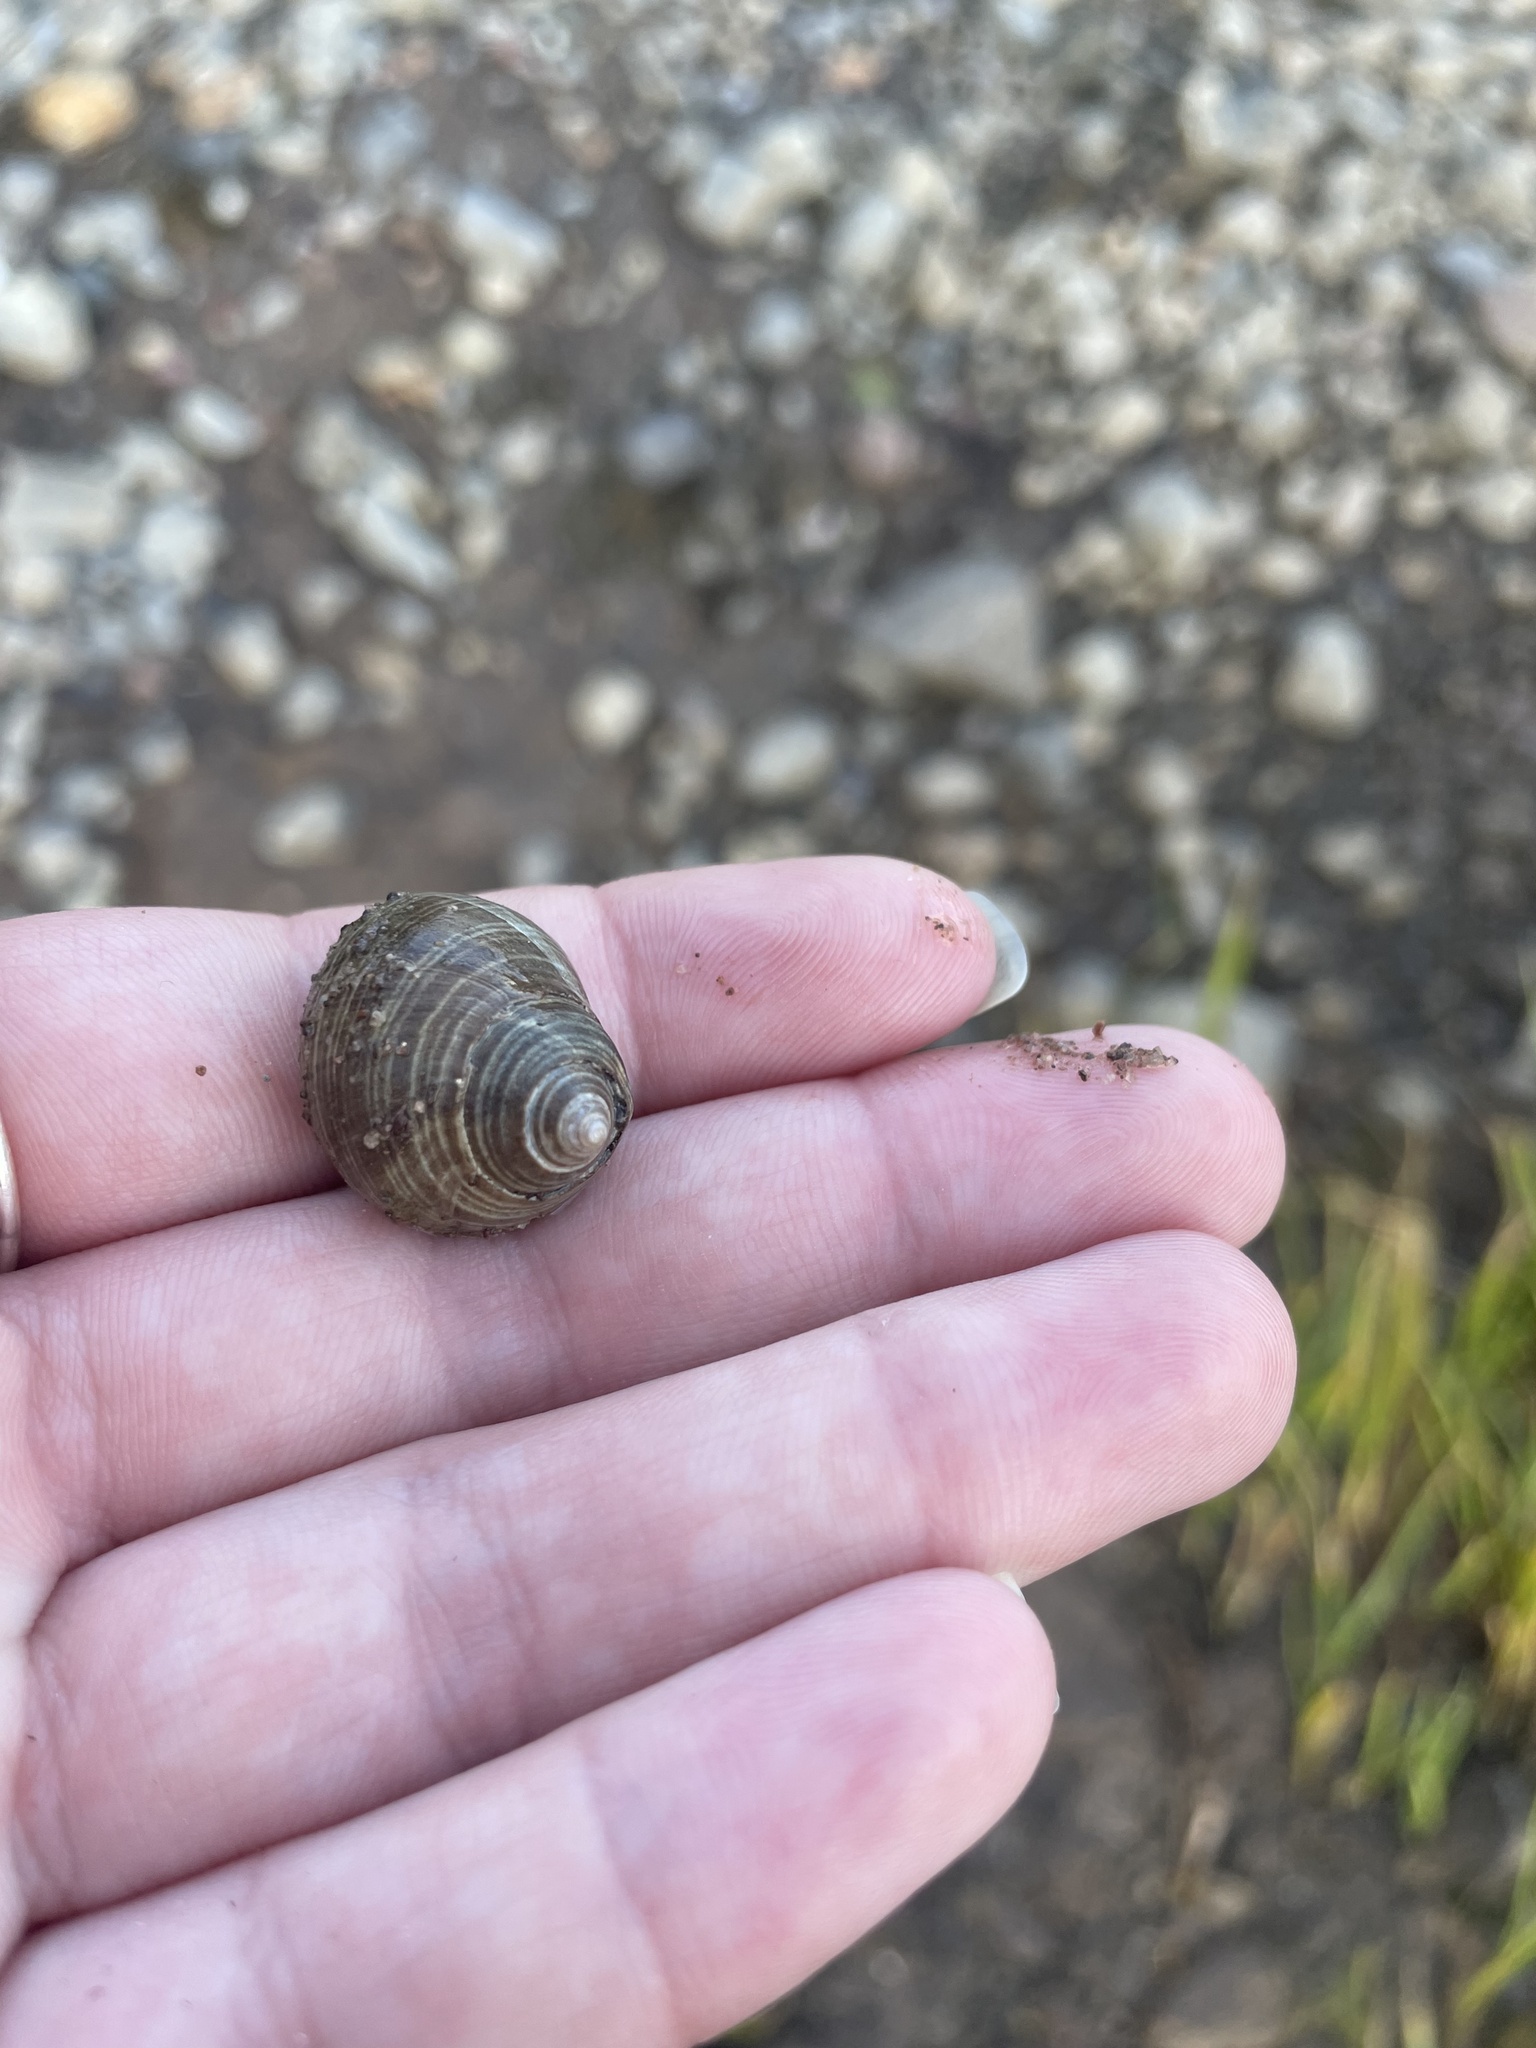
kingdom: Animalia
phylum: Mollusca
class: Gastropoda
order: Littorinimorpha
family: Littorinidae
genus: Littorina
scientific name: Littorina littorea
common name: Common periwinkle
